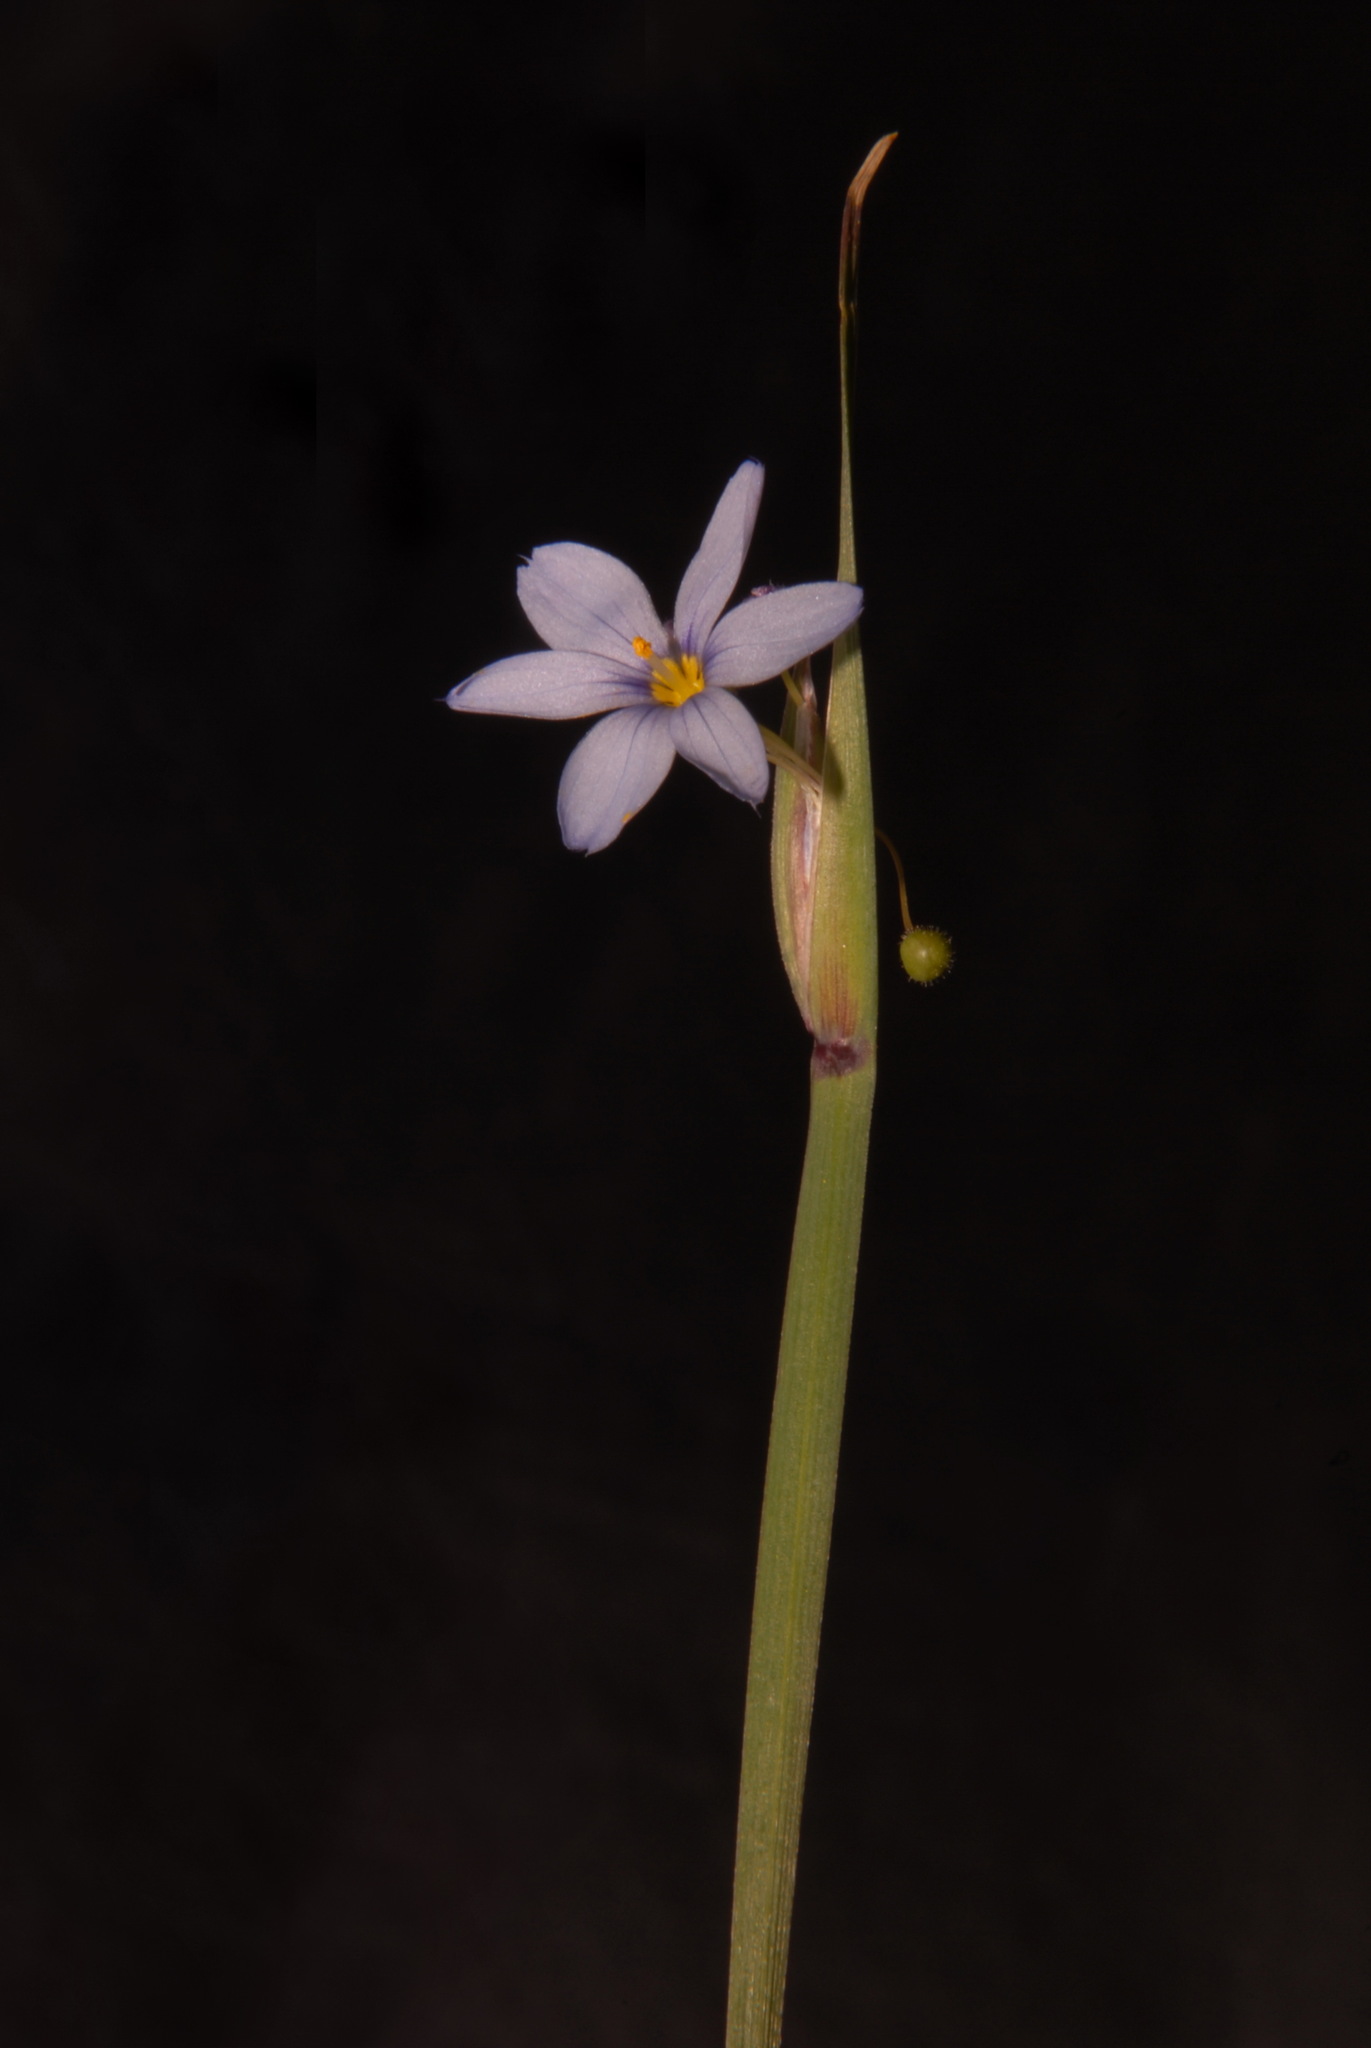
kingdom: Plantae
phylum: Tracheophyta
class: Liliopsida
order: Asparagales
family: Iridaceae
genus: Sisyrinchium
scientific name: Sisyrinchium albidum
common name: Pale blue-eyed-grass
